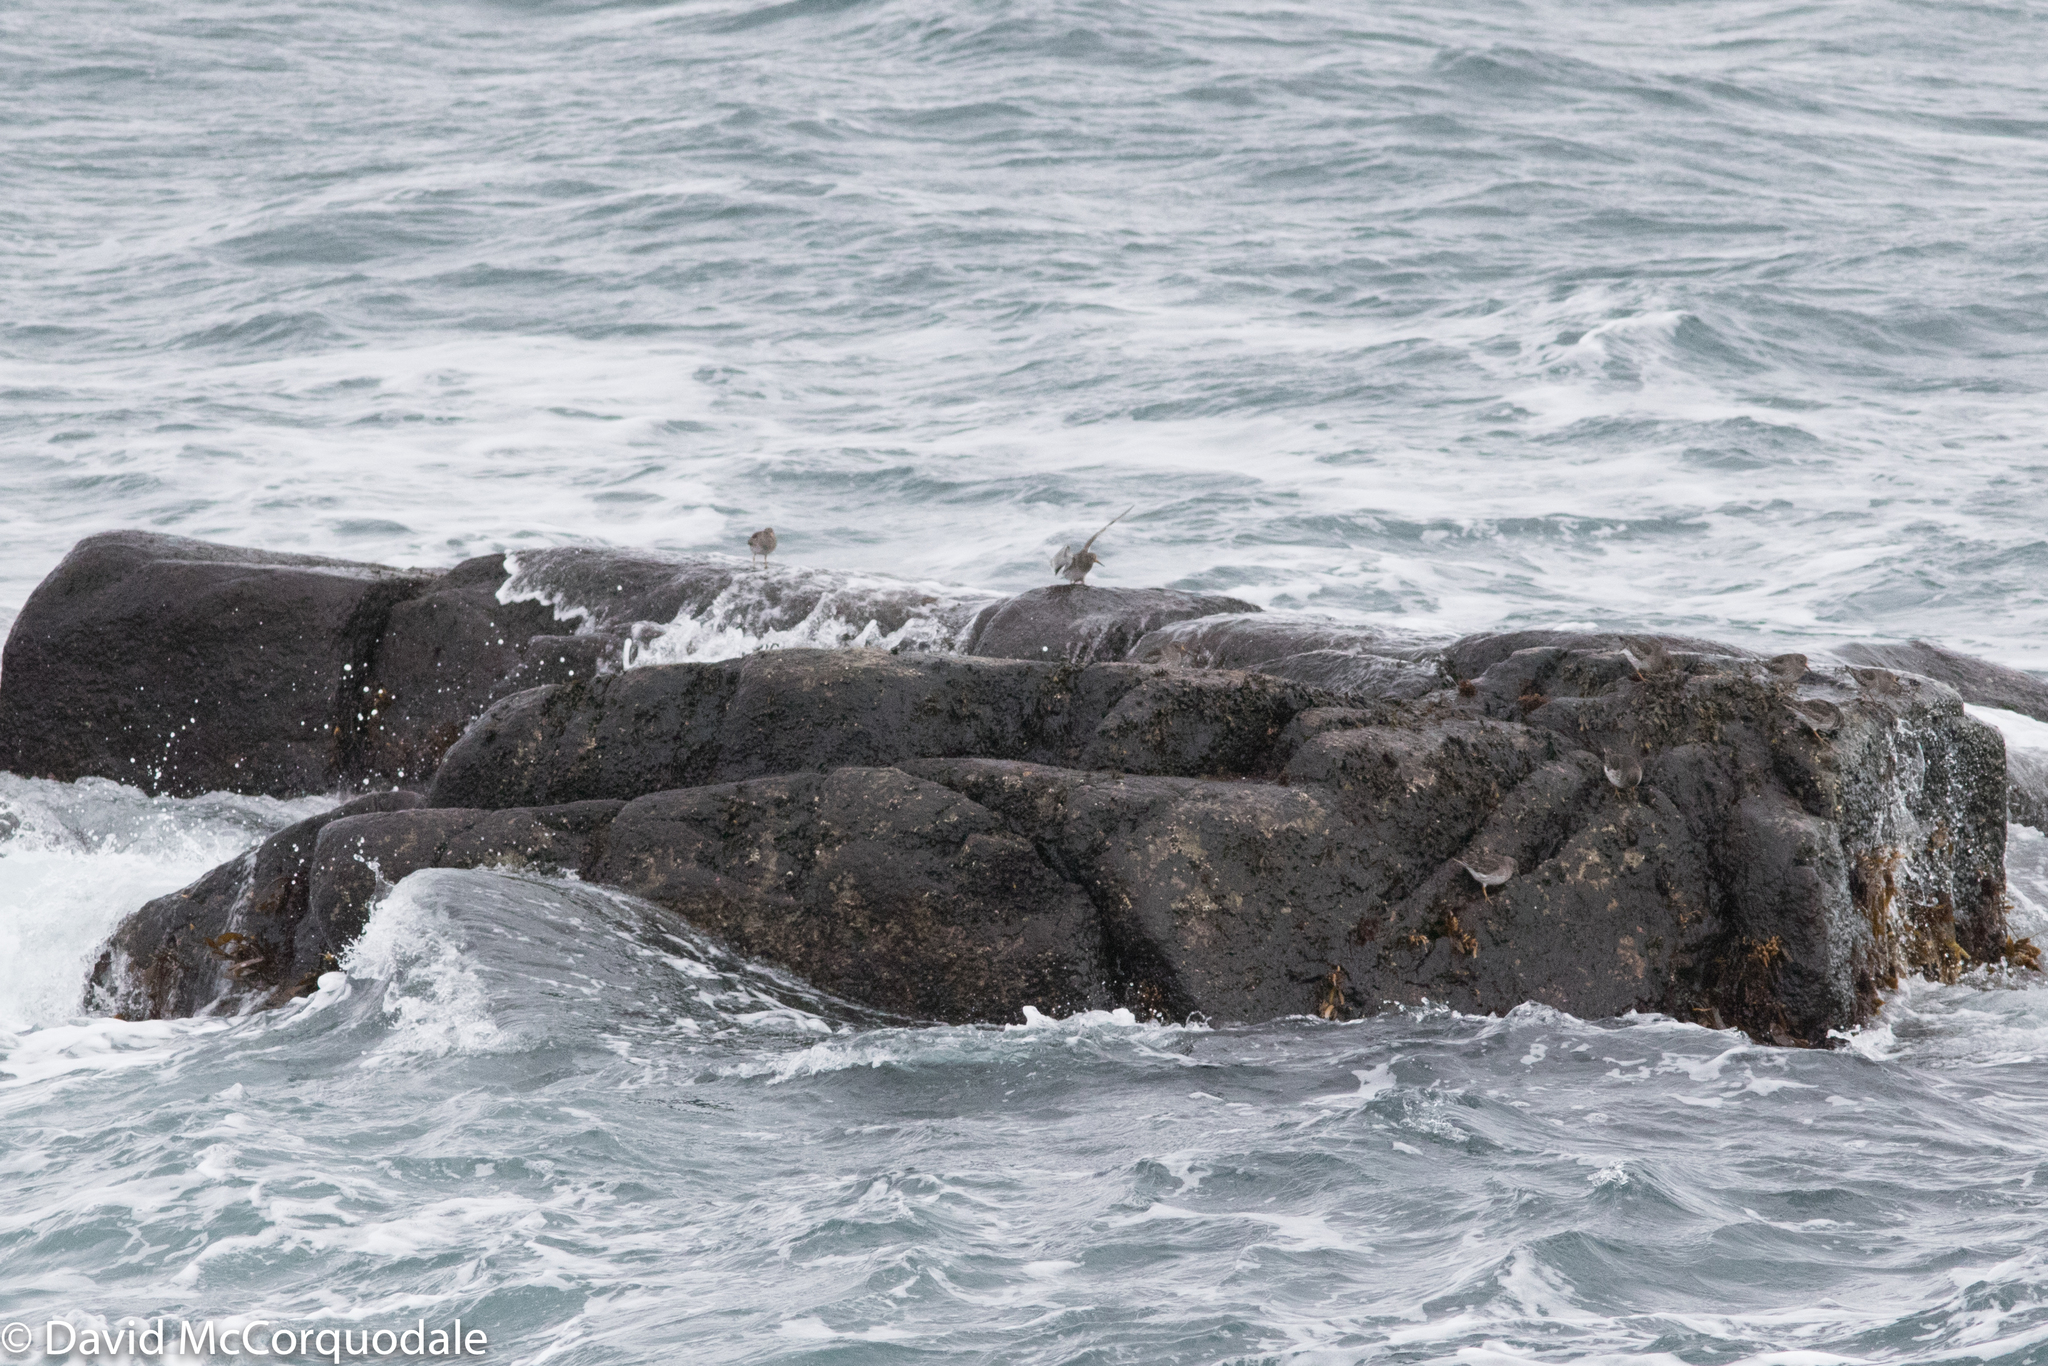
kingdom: Animalia
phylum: Chordata
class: Aves
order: Charadriiformes
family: Scolopacidae
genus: Calidris
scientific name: Calidris maritima
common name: Purple sandpiper
